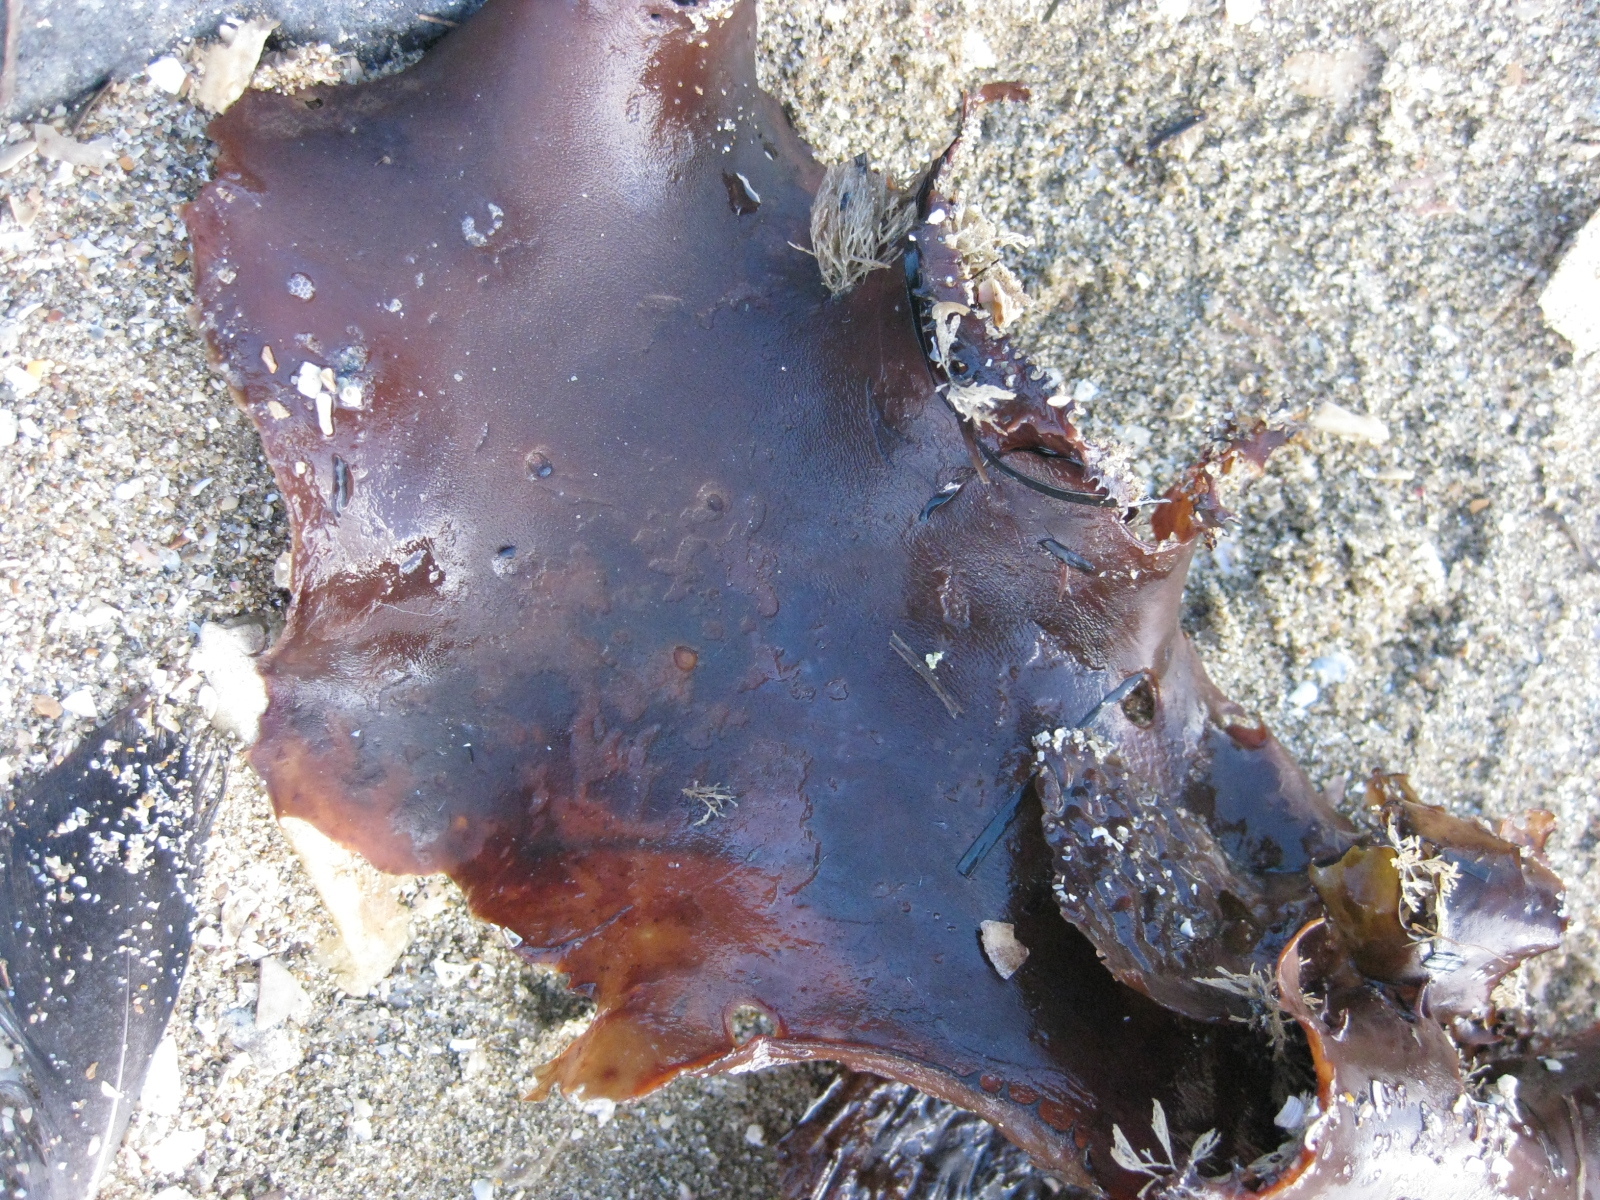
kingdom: Chromista
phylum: Ochrophyta
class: Phaeophyceae
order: Laminariales
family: Lessoniaceae
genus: Ecklonia
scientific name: Ecklonia radiata
